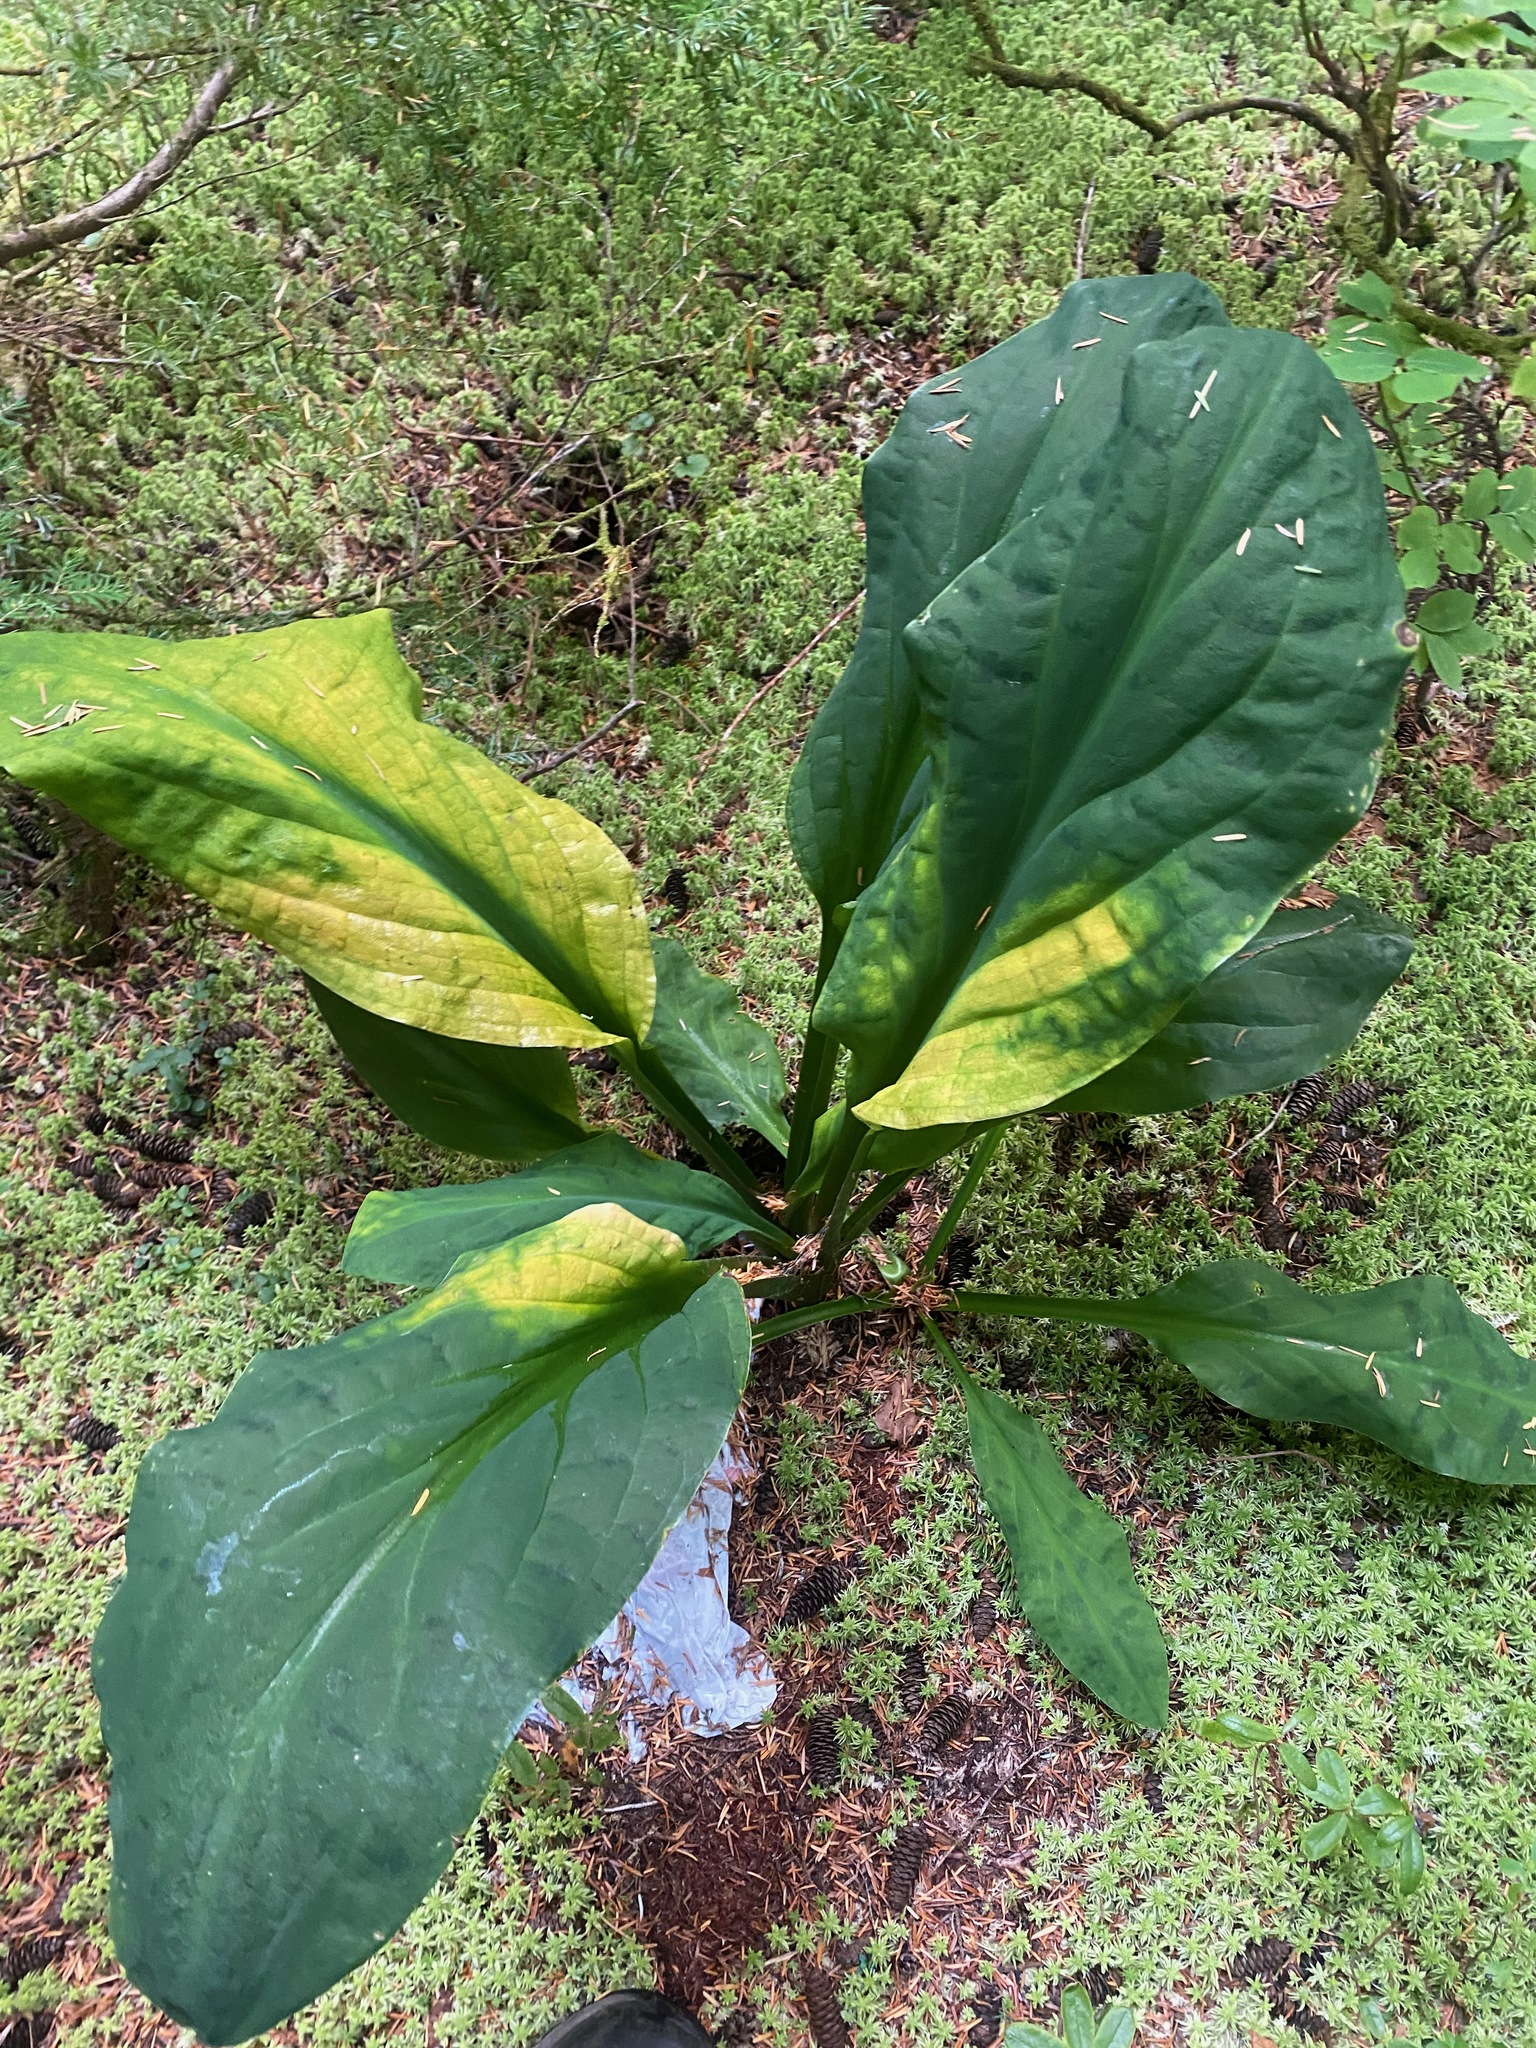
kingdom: Plantae
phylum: Tracheophyta
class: Liliopsida
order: Alismatales
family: Araceae
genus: Lysichiton
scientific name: Lysichiton americanus
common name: American skunk cabbage
